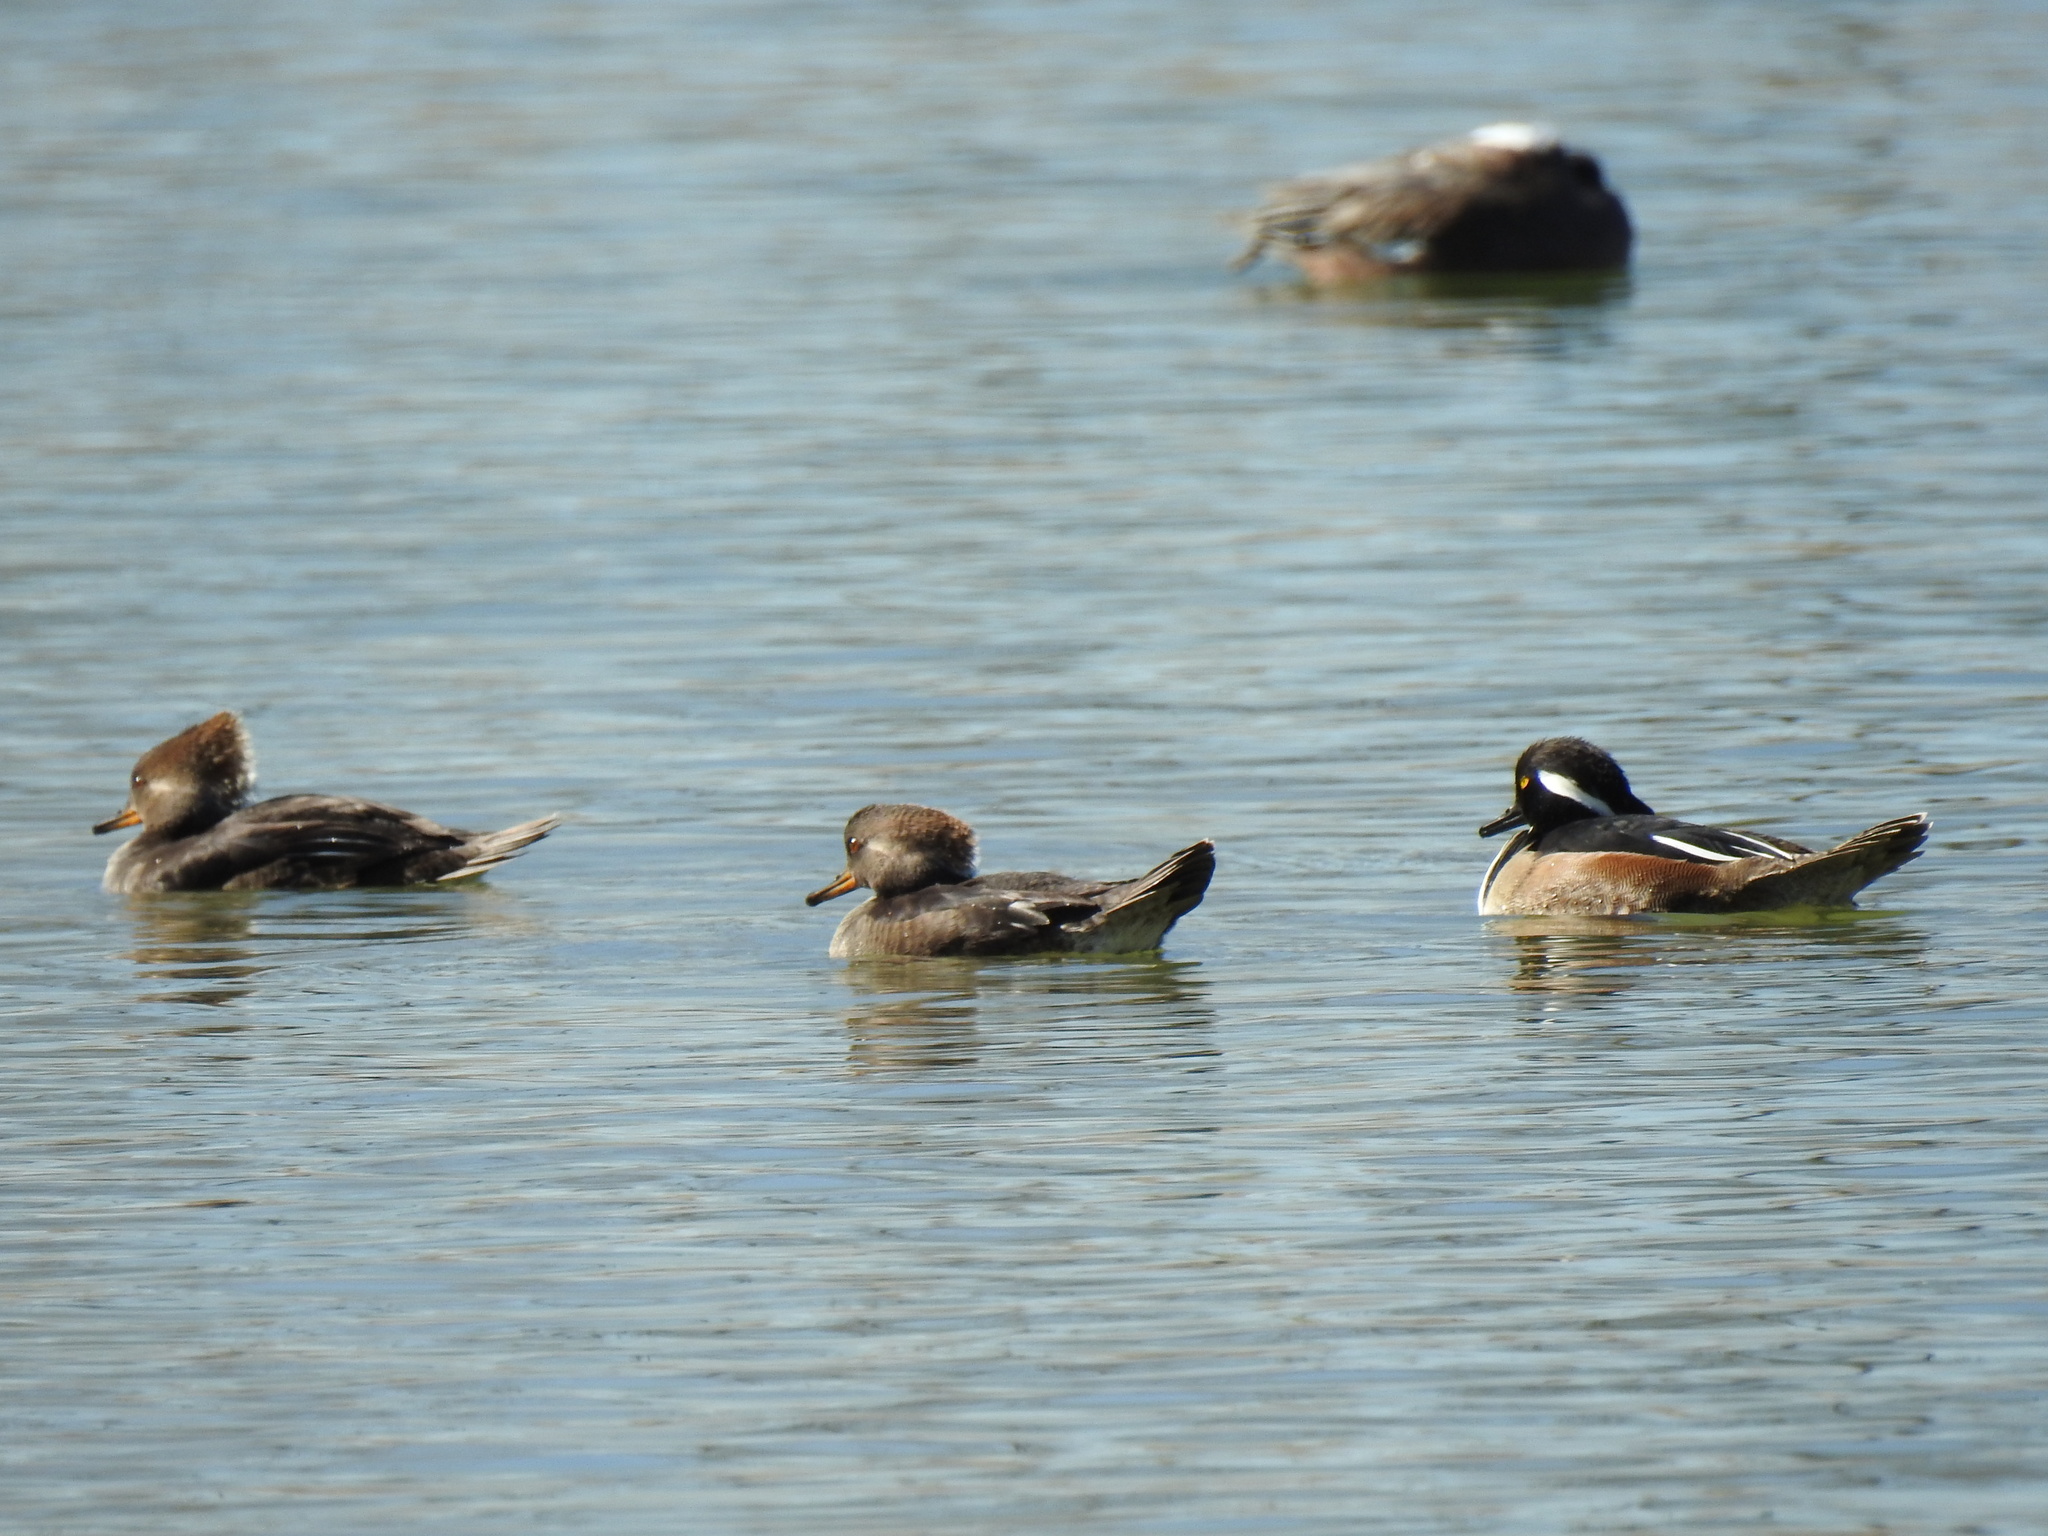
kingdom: Animalia
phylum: Chordata
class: Aves
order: Anseriformes
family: Anatidae
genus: Lophodytes
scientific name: Lophodytes cucullatus
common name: Hooded merganser
